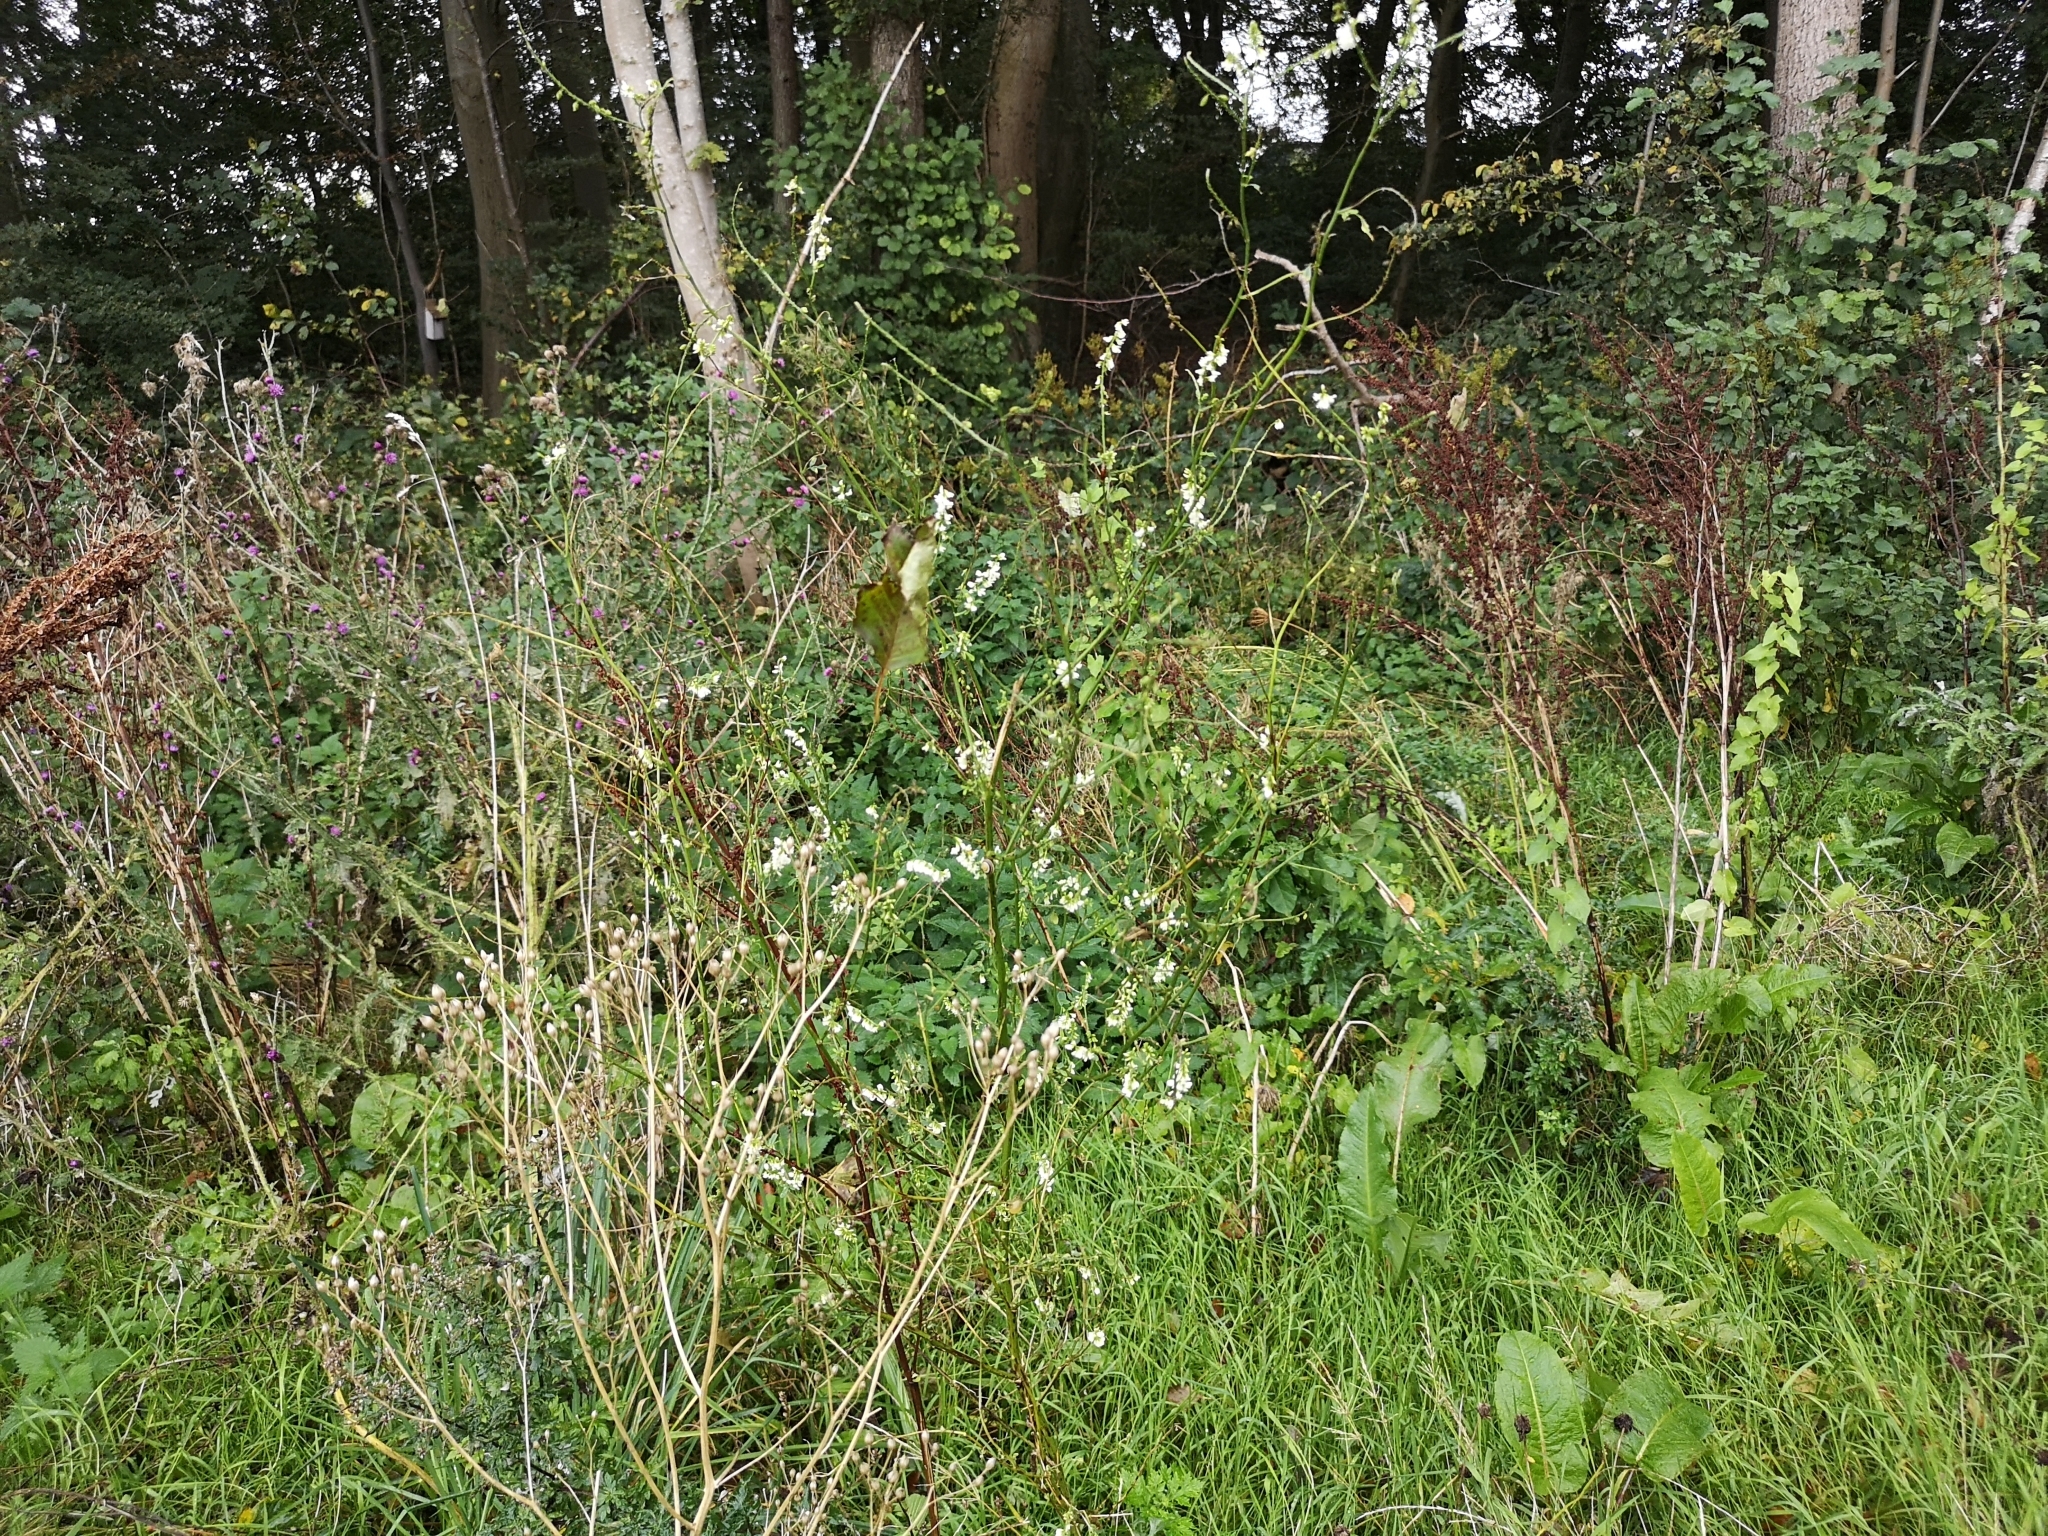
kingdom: Plantae
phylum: Tracheophyta
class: Magnoliopsida
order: Fabales
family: Fabaceae
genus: Melilotus
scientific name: Melilotus albus
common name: White melilot
